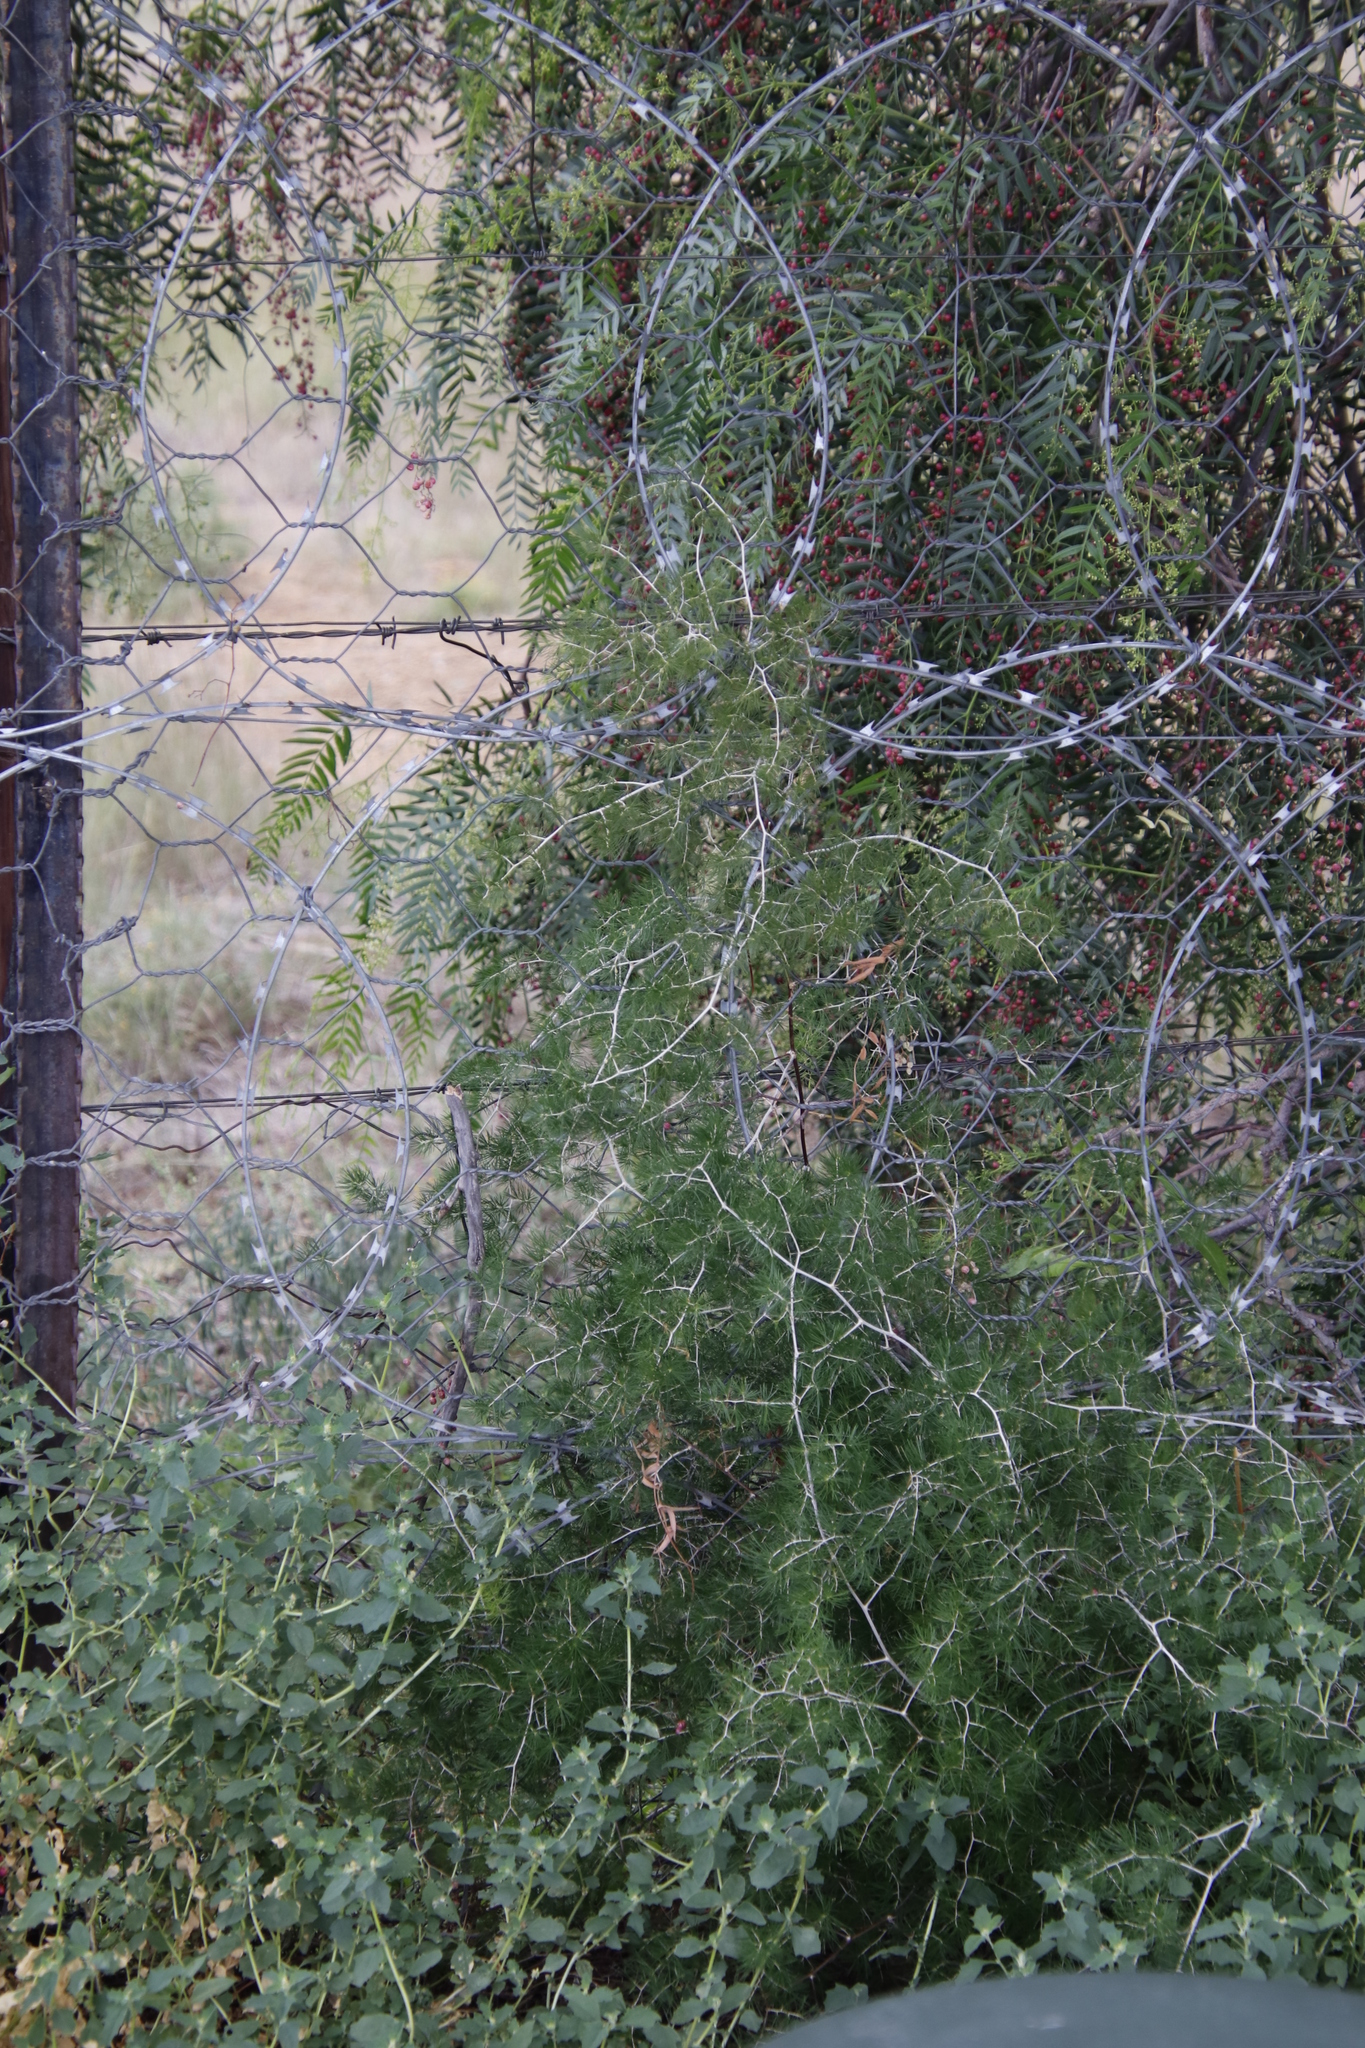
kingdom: Plantae
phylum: Tracheophyta
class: Liliopsida
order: Asparagales
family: Asparagaceae
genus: Asparagus
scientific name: Asparagus retrofractus
